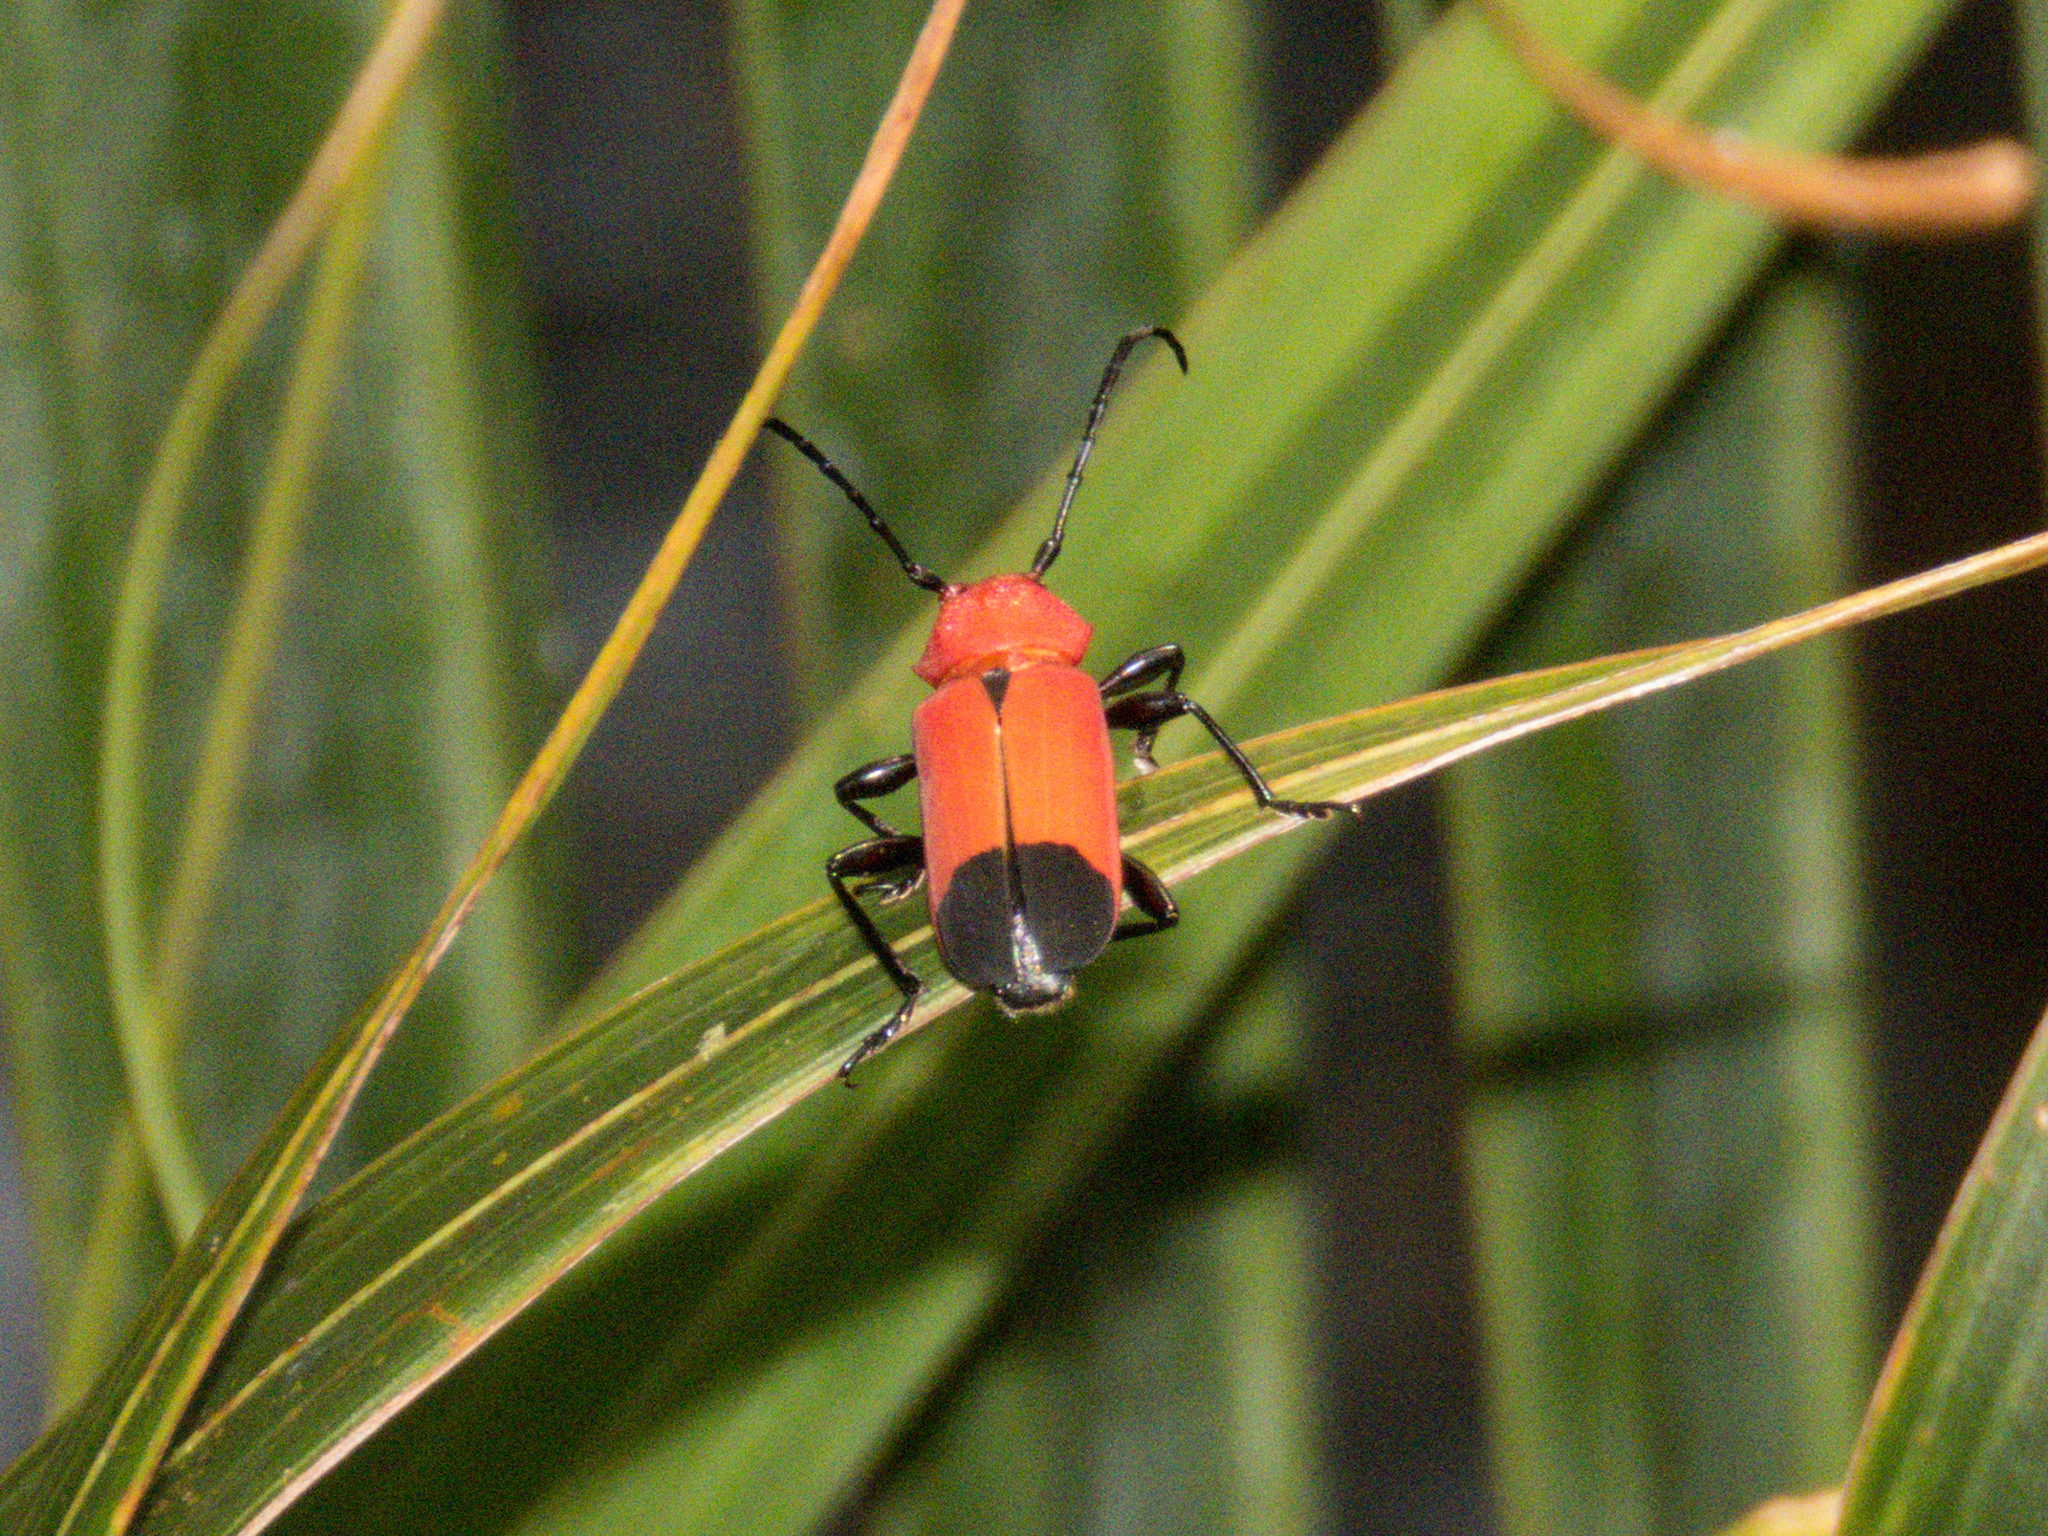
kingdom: Animalia
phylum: Arthropoda
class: Insecta
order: Coleoptera
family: Cerambycidae
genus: Euryphagus
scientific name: Euryphagus lundii
